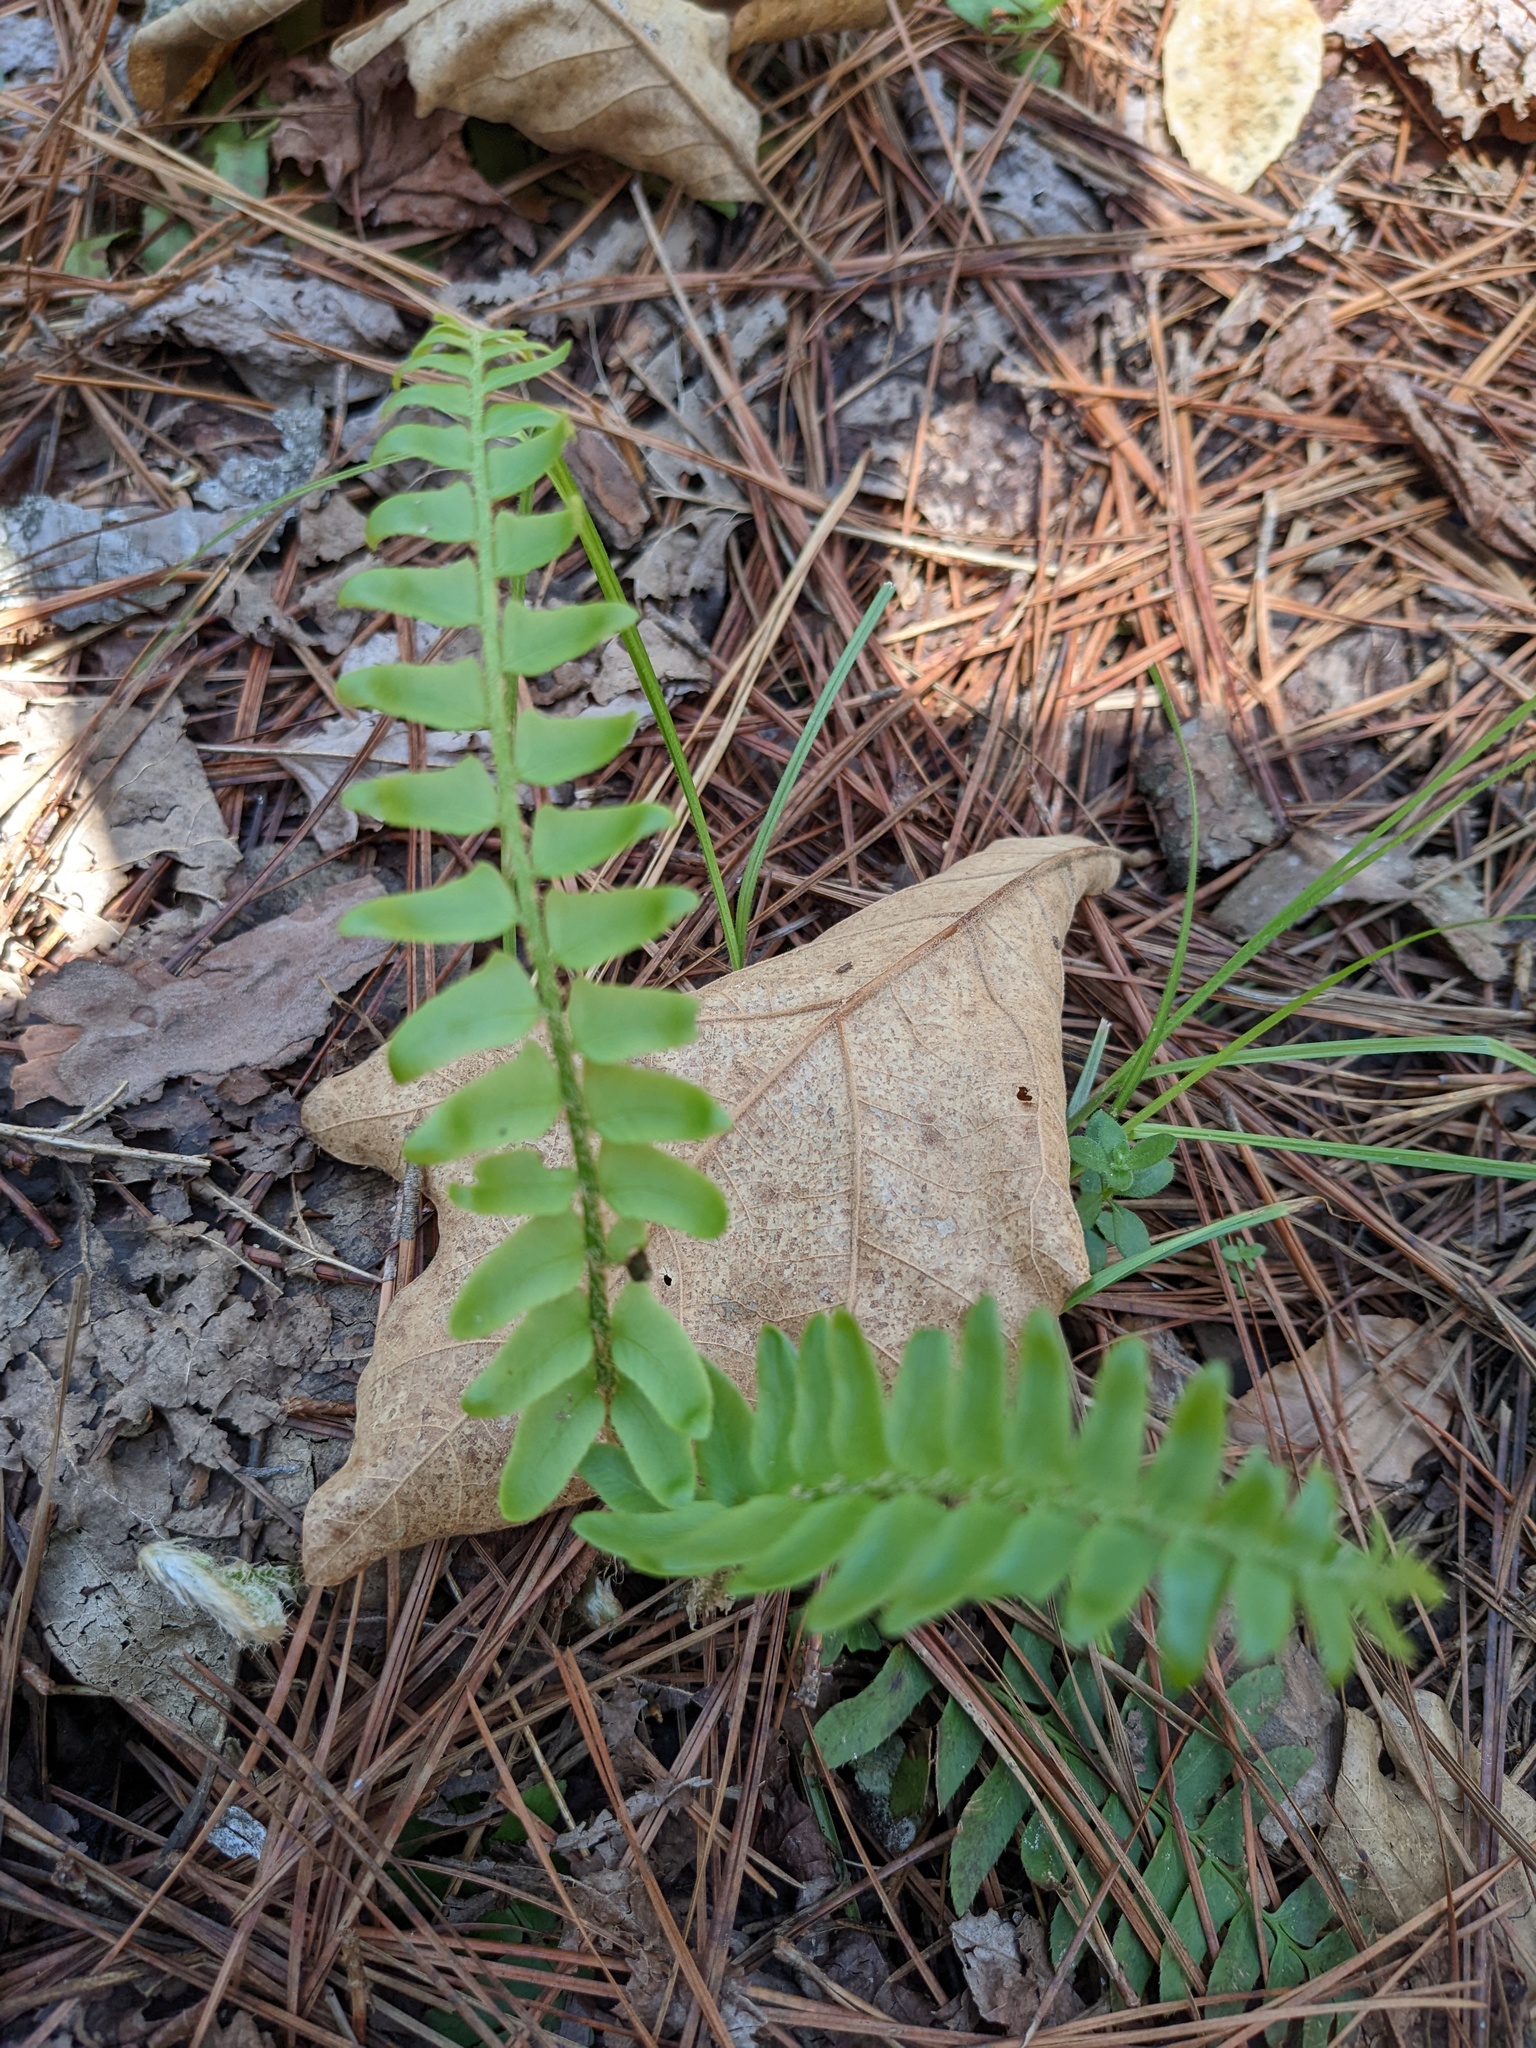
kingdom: Plantae
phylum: Tracheophyta
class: Polypodiopsida
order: Polypodiales
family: Dryopteridaceae
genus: Polystichum
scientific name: Polystichum acrostichoides
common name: Christmas fern
